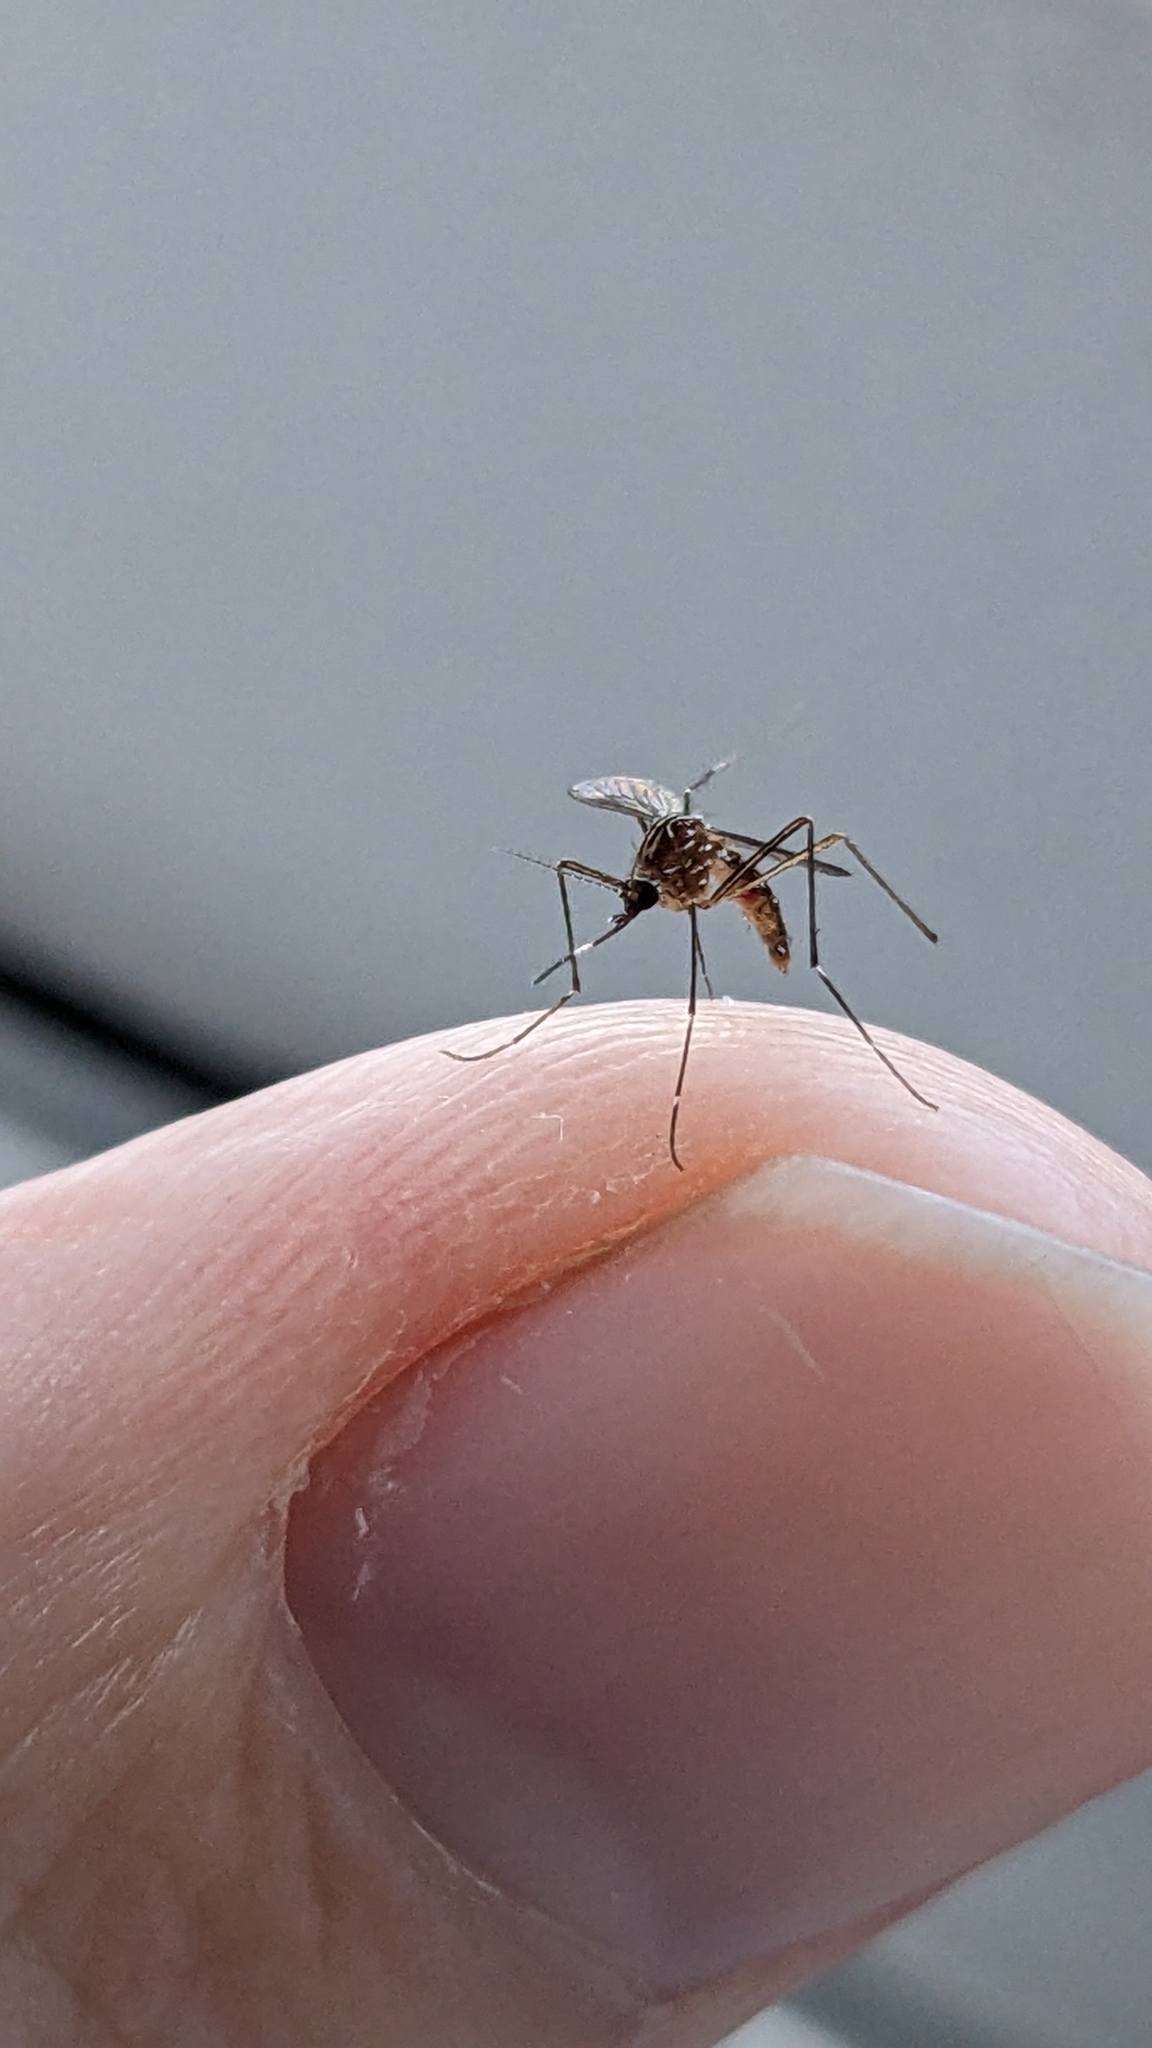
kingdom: Animalia
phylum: Arthropoda
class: Insecta
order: Diptera
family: Culicidae
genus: Aedes
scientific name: Aedes notoscriptus
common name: Australian backyard mosquito
